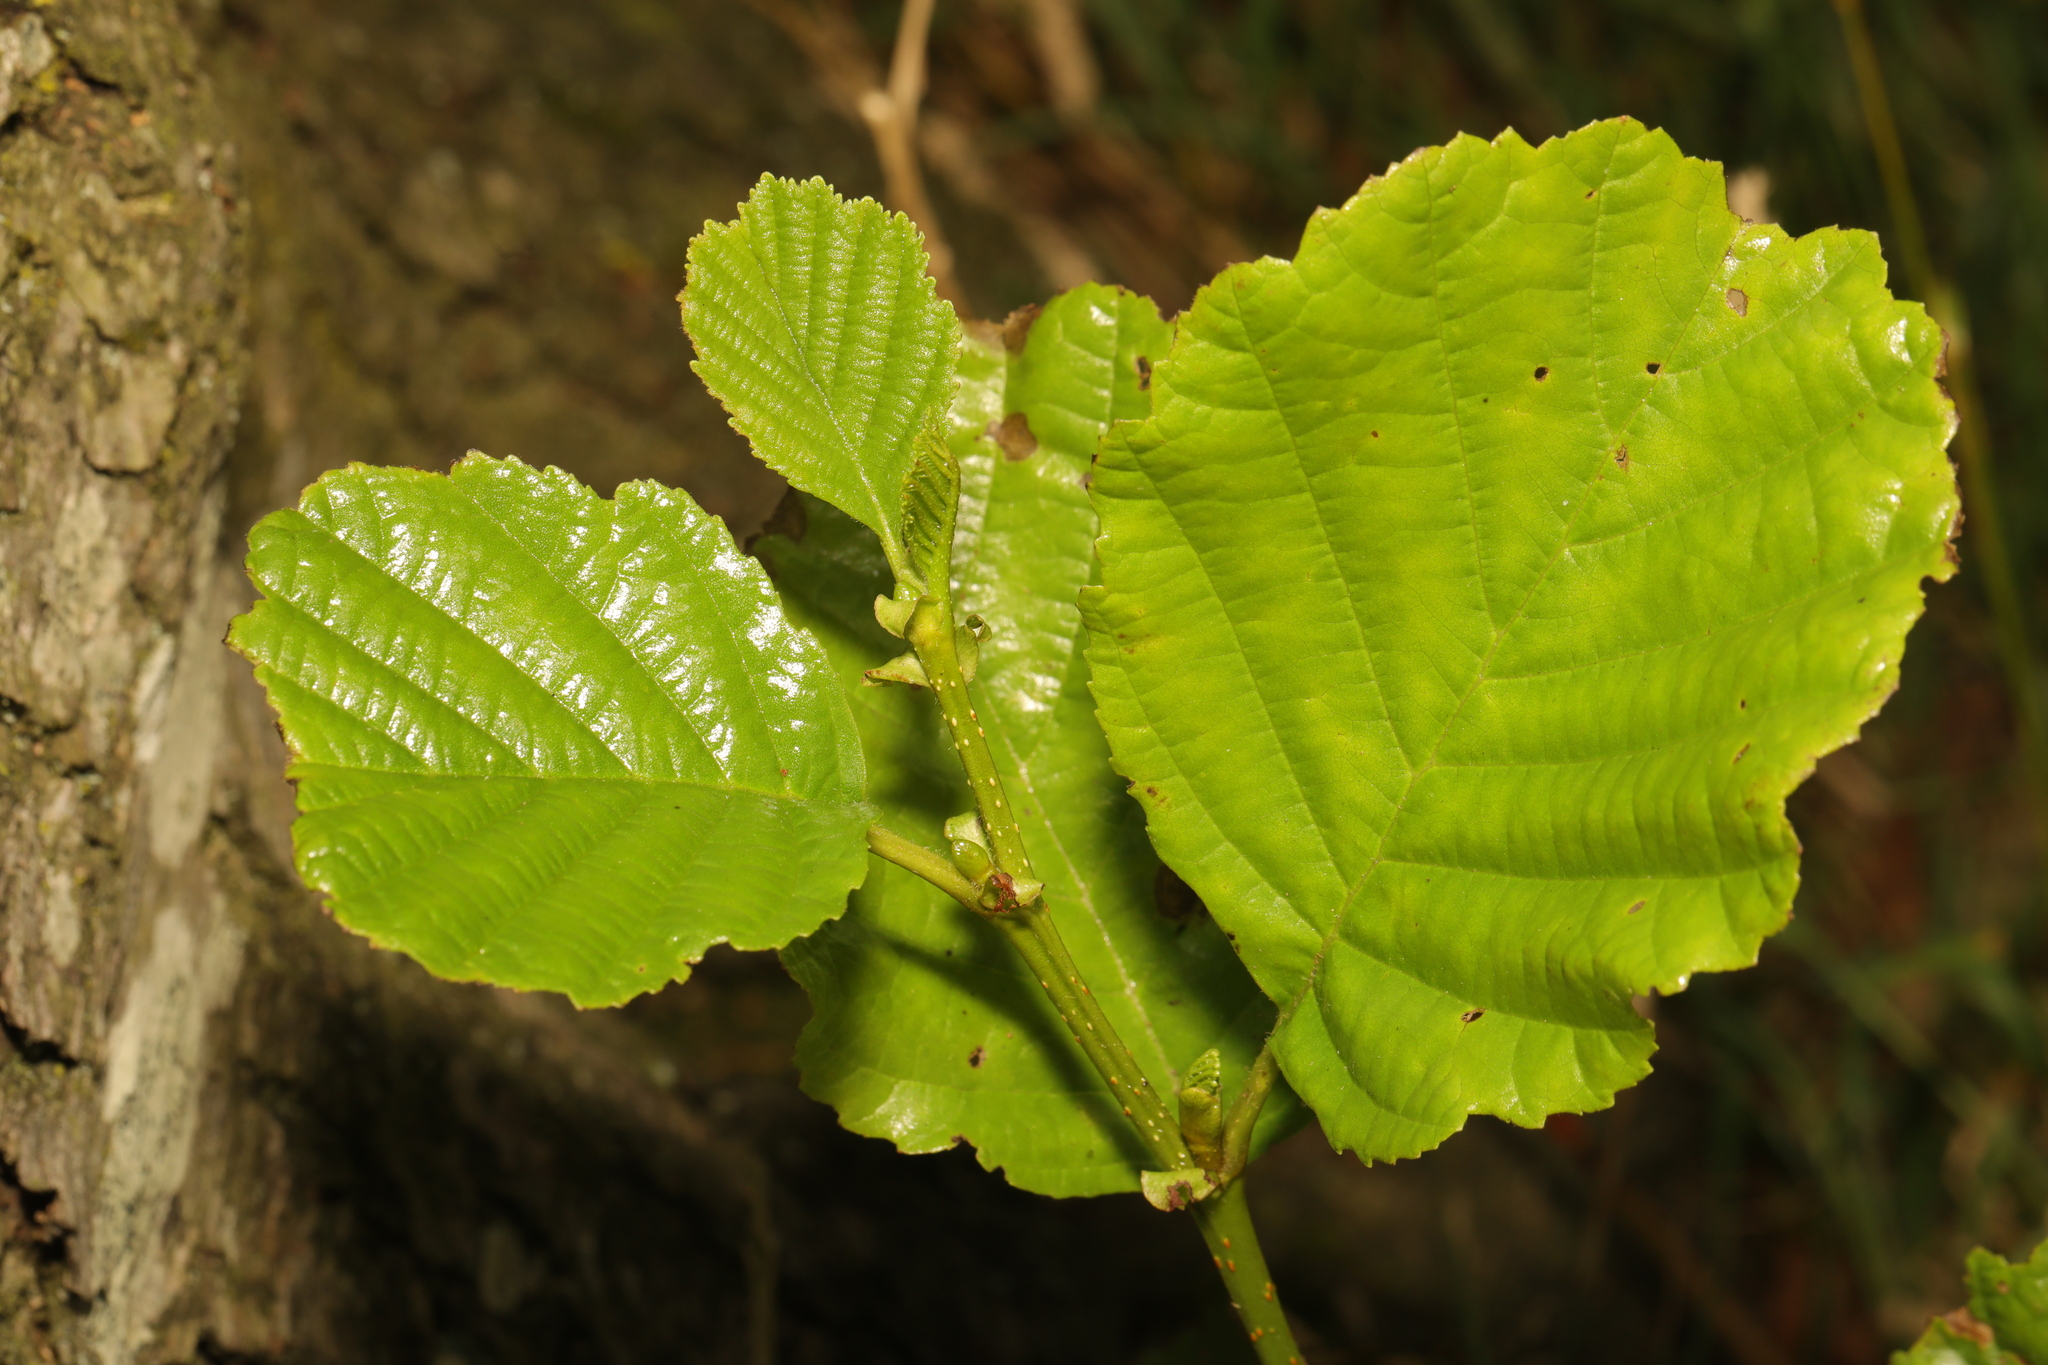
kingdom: Plantae
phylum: Tracheophyta
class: Magnoliopsida
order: Fagales
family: Betulaceae
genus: Alnus
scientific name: Alnus glutinosa
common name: Black alder
